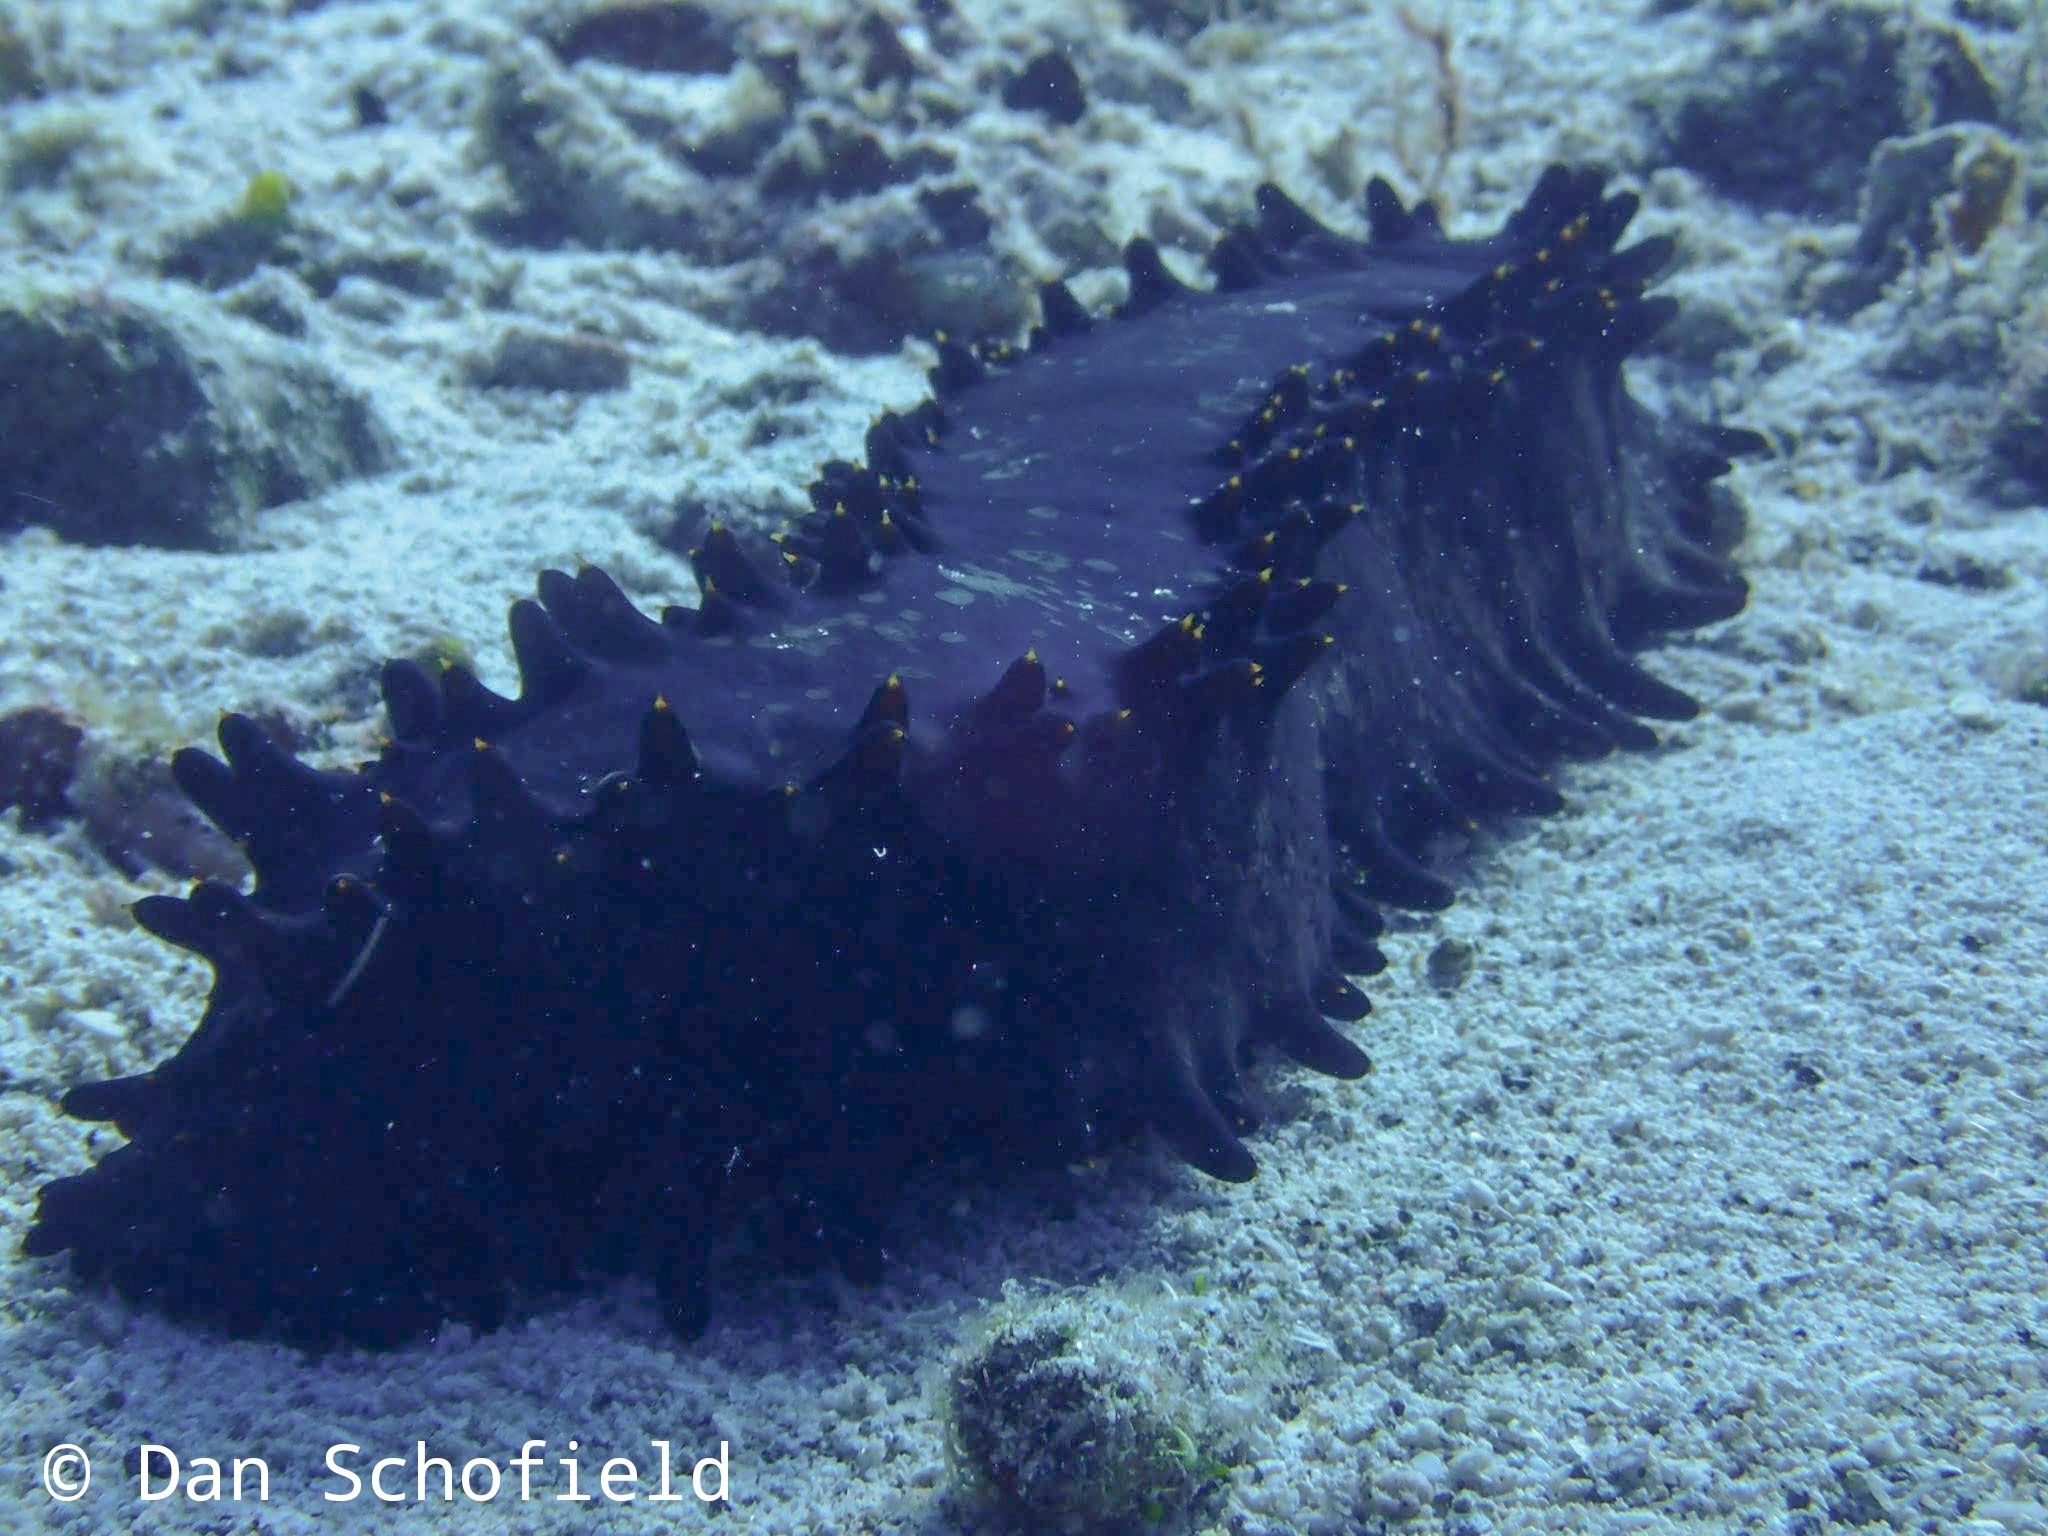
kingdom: Animalia
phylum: Echinodermata
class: Holothuroidea
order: Synallactida
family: Stichopodidae
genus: Stichopus
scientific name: Stichopus chloronotus
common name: Greenfish
